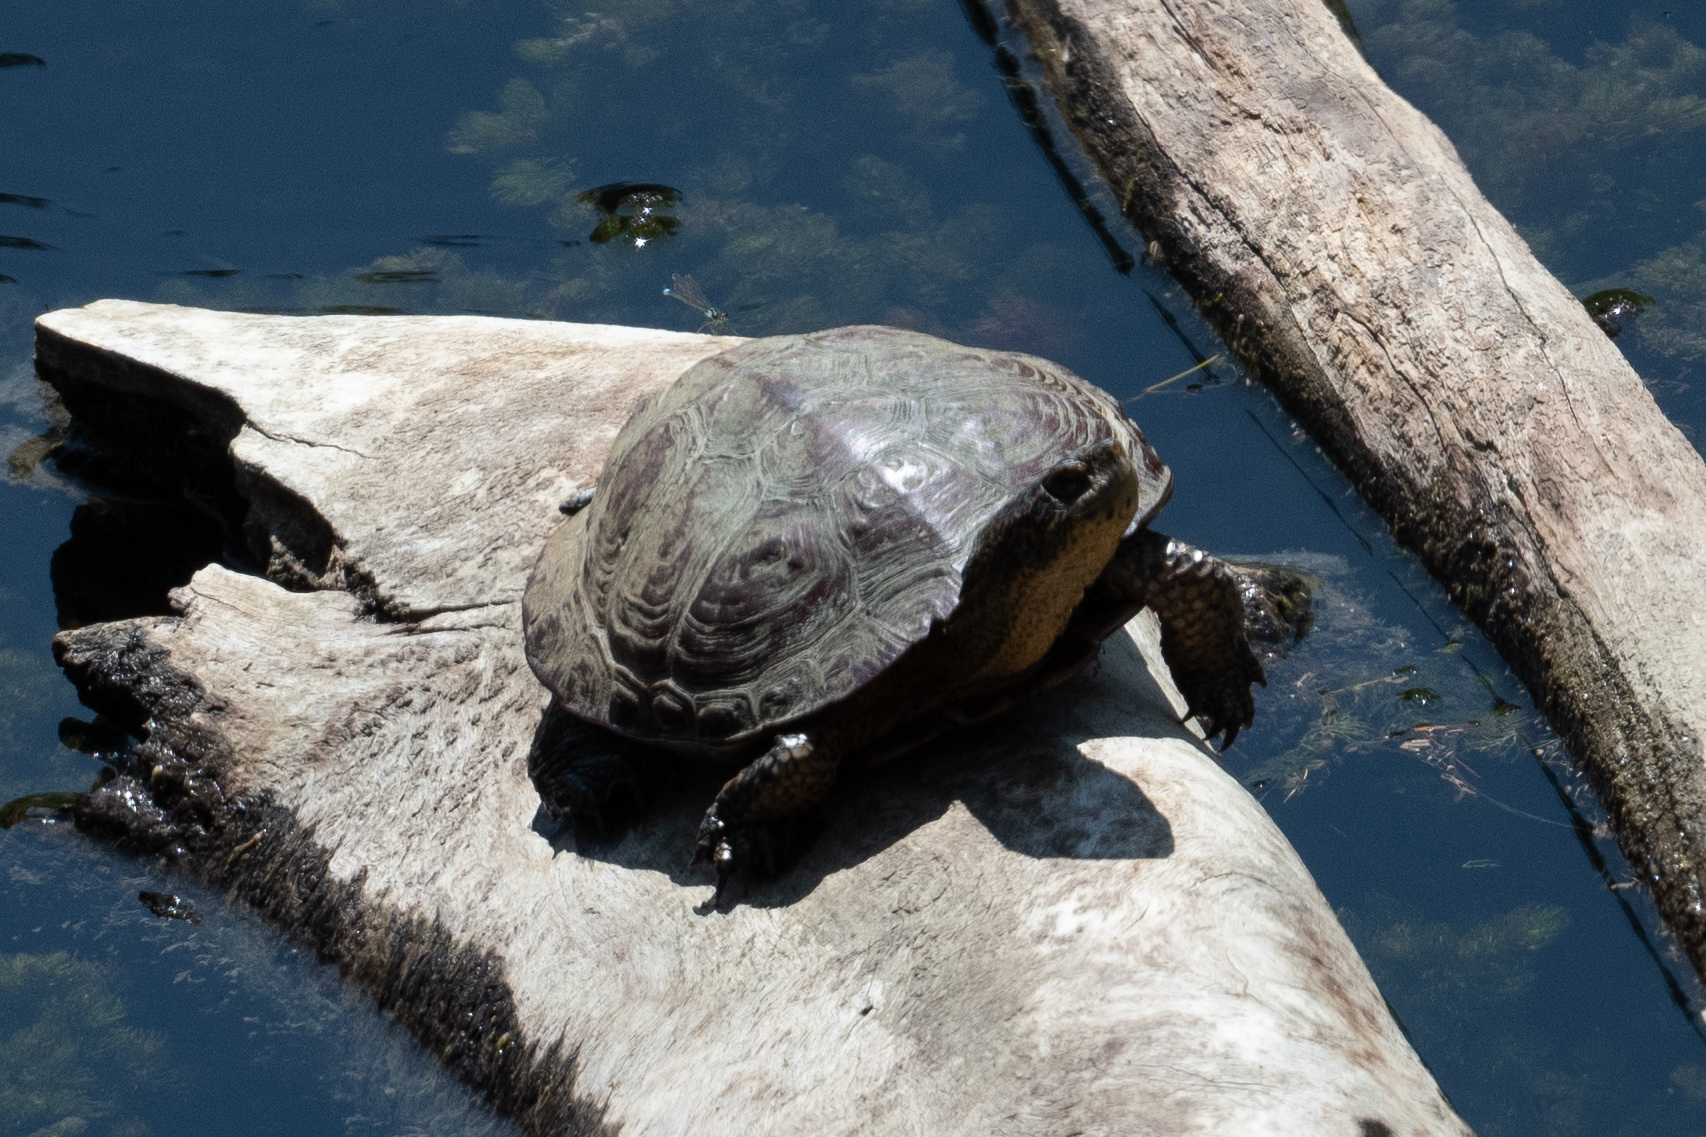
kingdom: Animalia
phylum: Chordata
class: Testudines
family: Emydidae
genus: Actinemys
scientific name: Actinemys marmorata
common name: Western pond turtle
